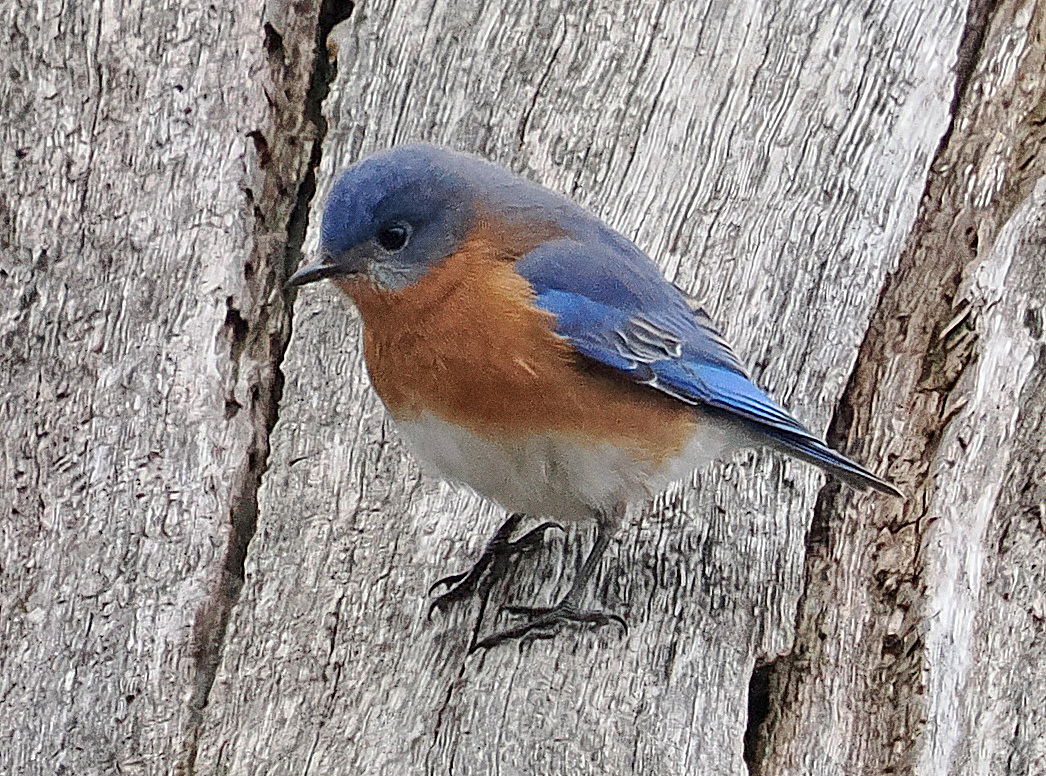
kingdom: Animalia
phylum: Chordata
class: Aves
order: Passeriformes
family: Turdidae
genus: Sialia
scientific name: Sialia sialis
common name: Eastern bluebird
